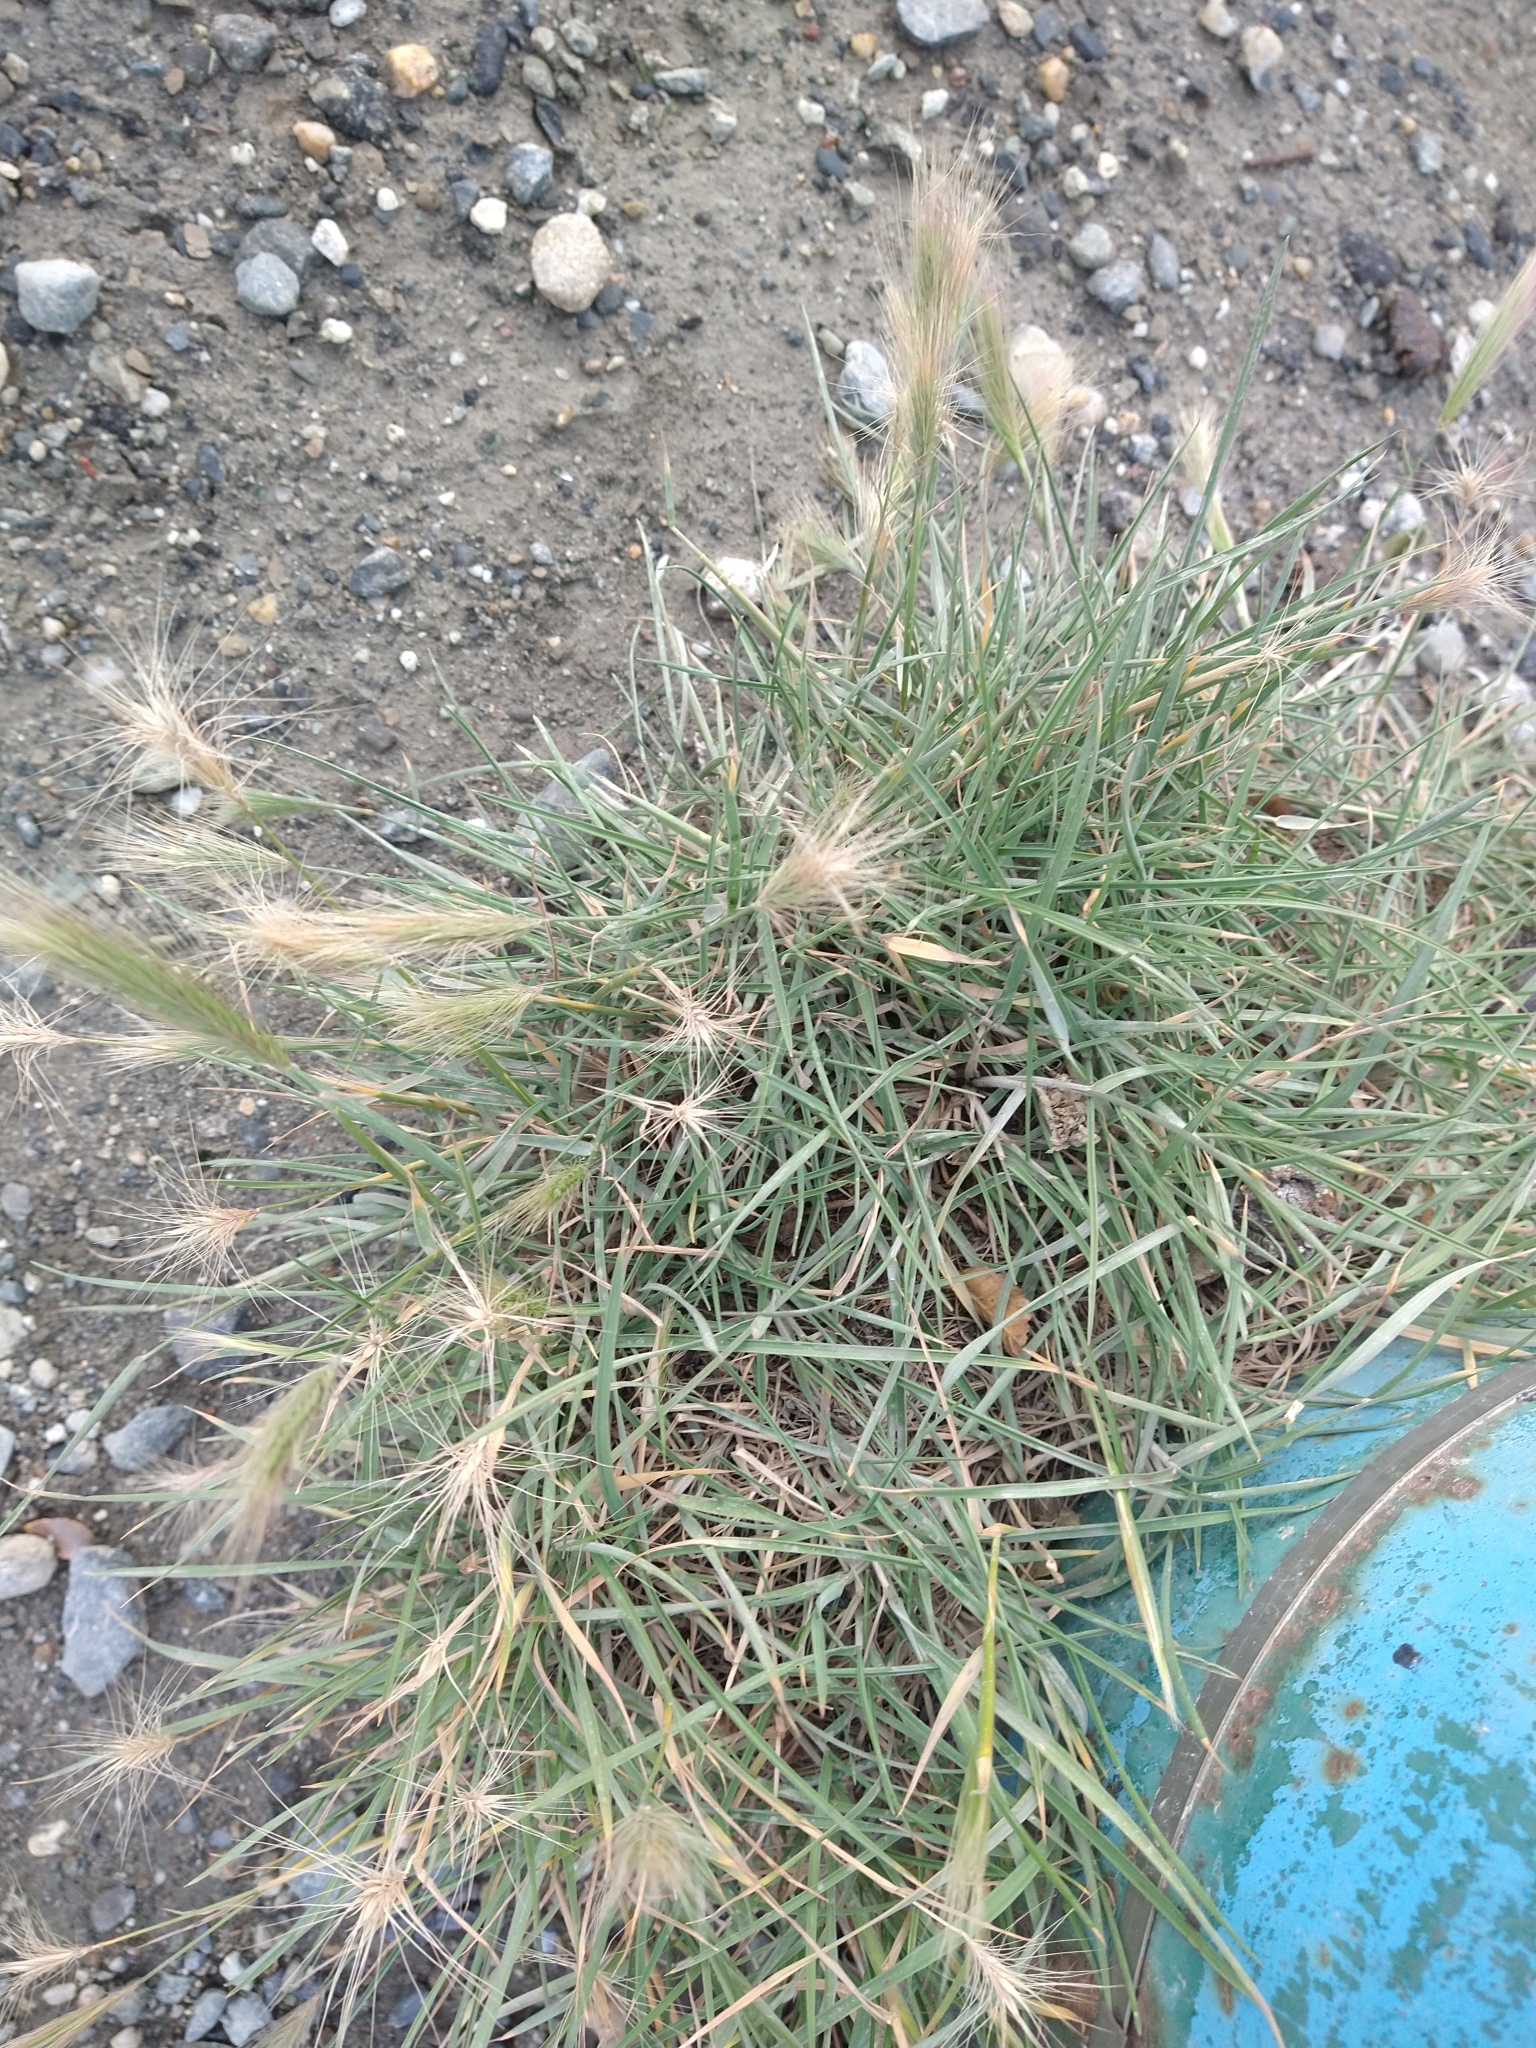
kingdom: Plantae
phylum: Tracheophyta
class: Liliopsida
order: Poales
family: Poaceae
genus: Hordeum
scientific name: Hordeum jubatum
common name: Foxtail barley
